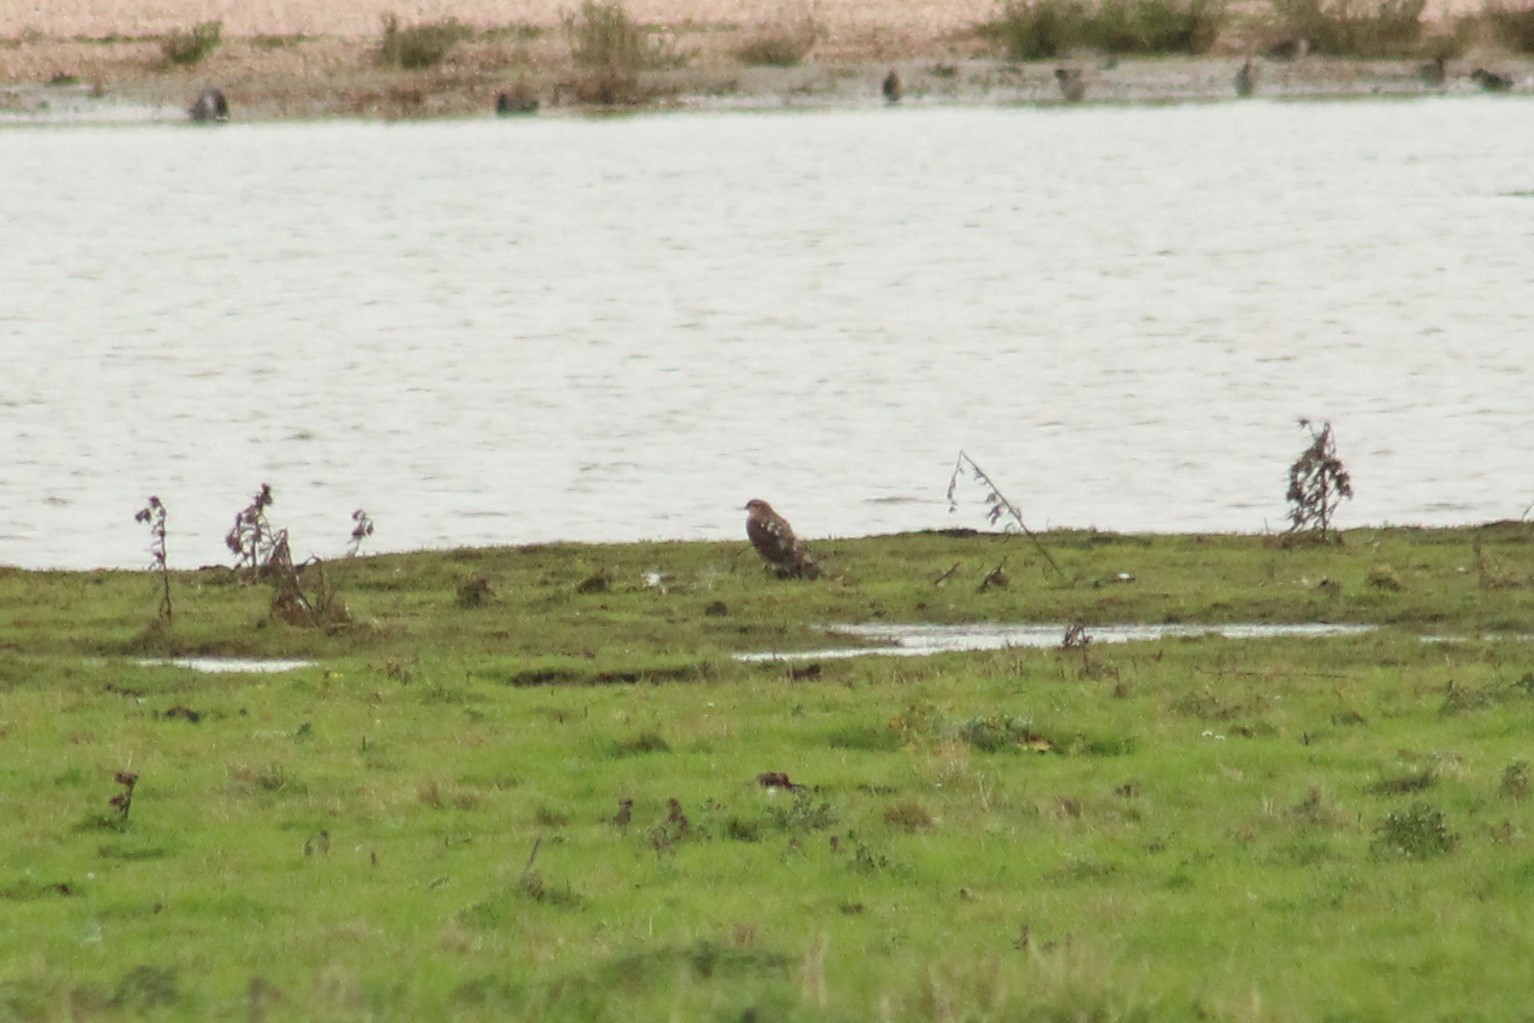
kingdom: Animalia
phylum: Chordata
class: Aves
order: Accipitriformes
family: Accipitridae
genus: Accipiter
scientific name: Accipiter nisus
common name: Eurasian sparrowhawk
